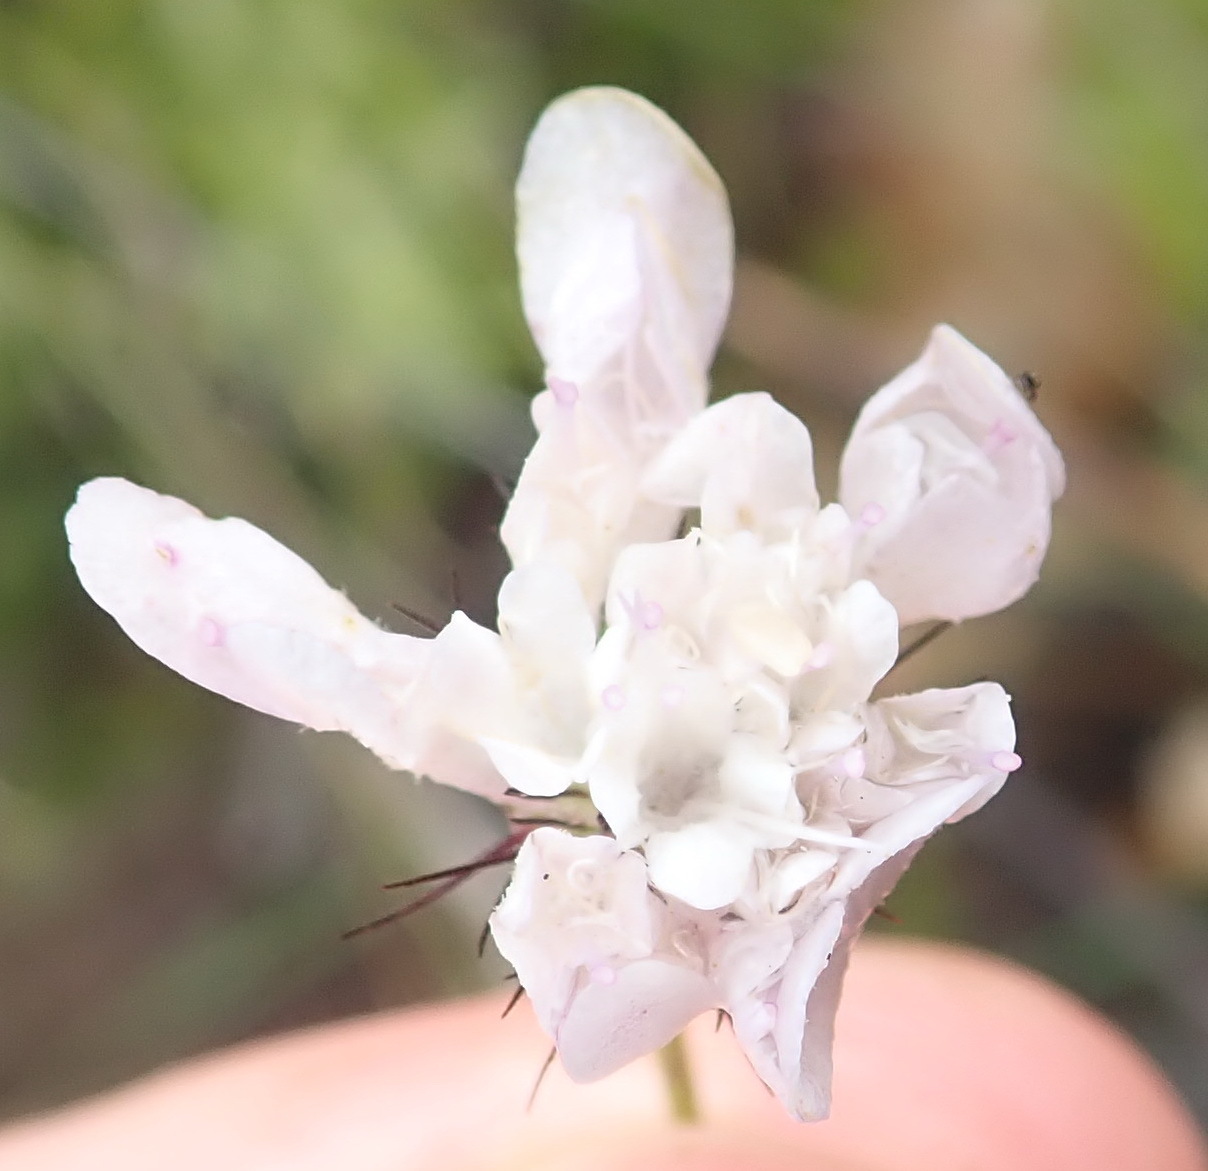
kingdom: Plantae
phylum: Tracheophyta
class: Magnoliopsida
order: Dipsacales
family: Caprifoliaceae
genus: Scabiosa
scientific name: Scabiosa columbaria
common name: Small scabious
